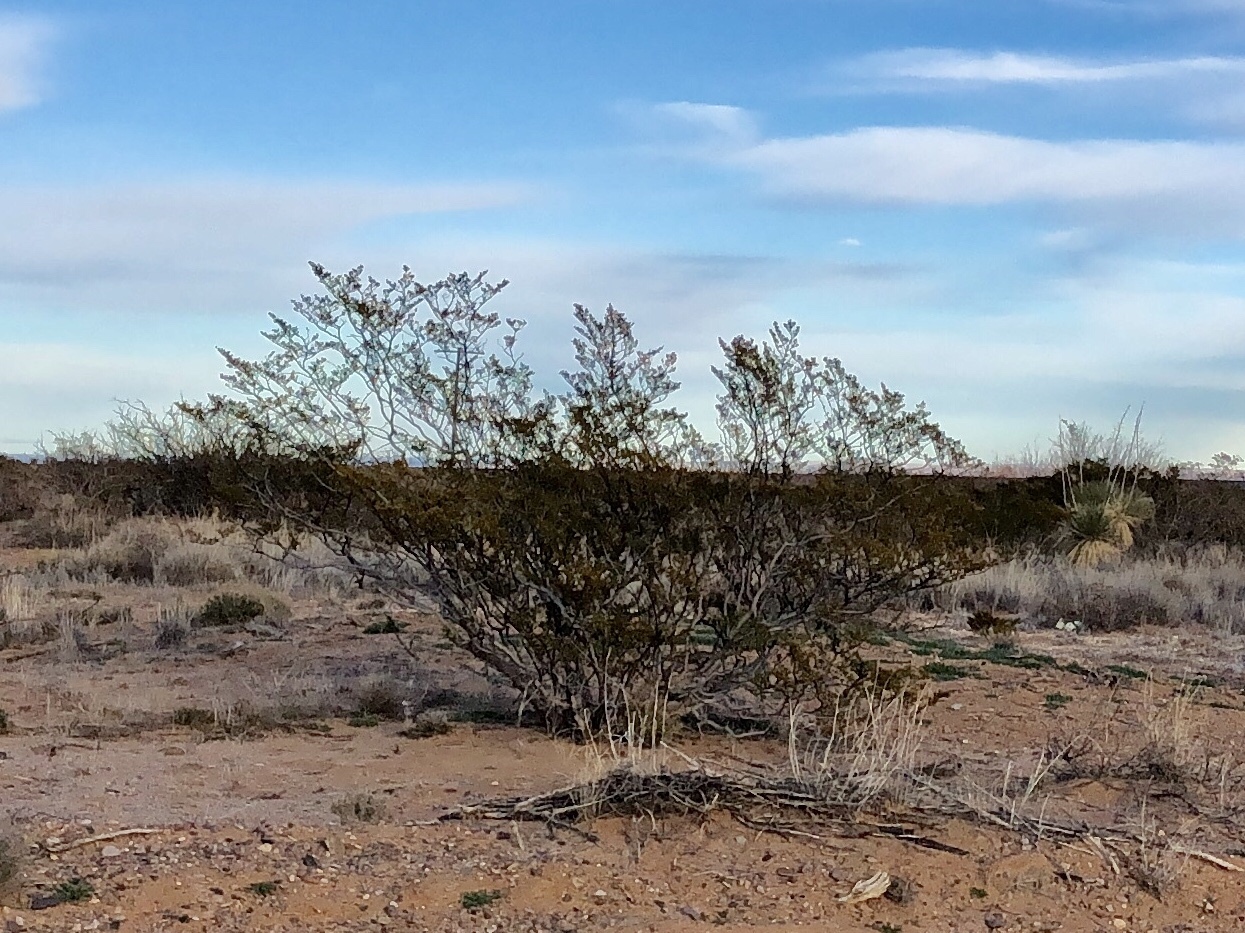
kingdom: Plantae
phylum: Tracheophyta
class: Magnoliopsida
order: Zygophyllales
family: Zygophyllaceae
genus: Larrea
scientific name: Larrea tridentata
